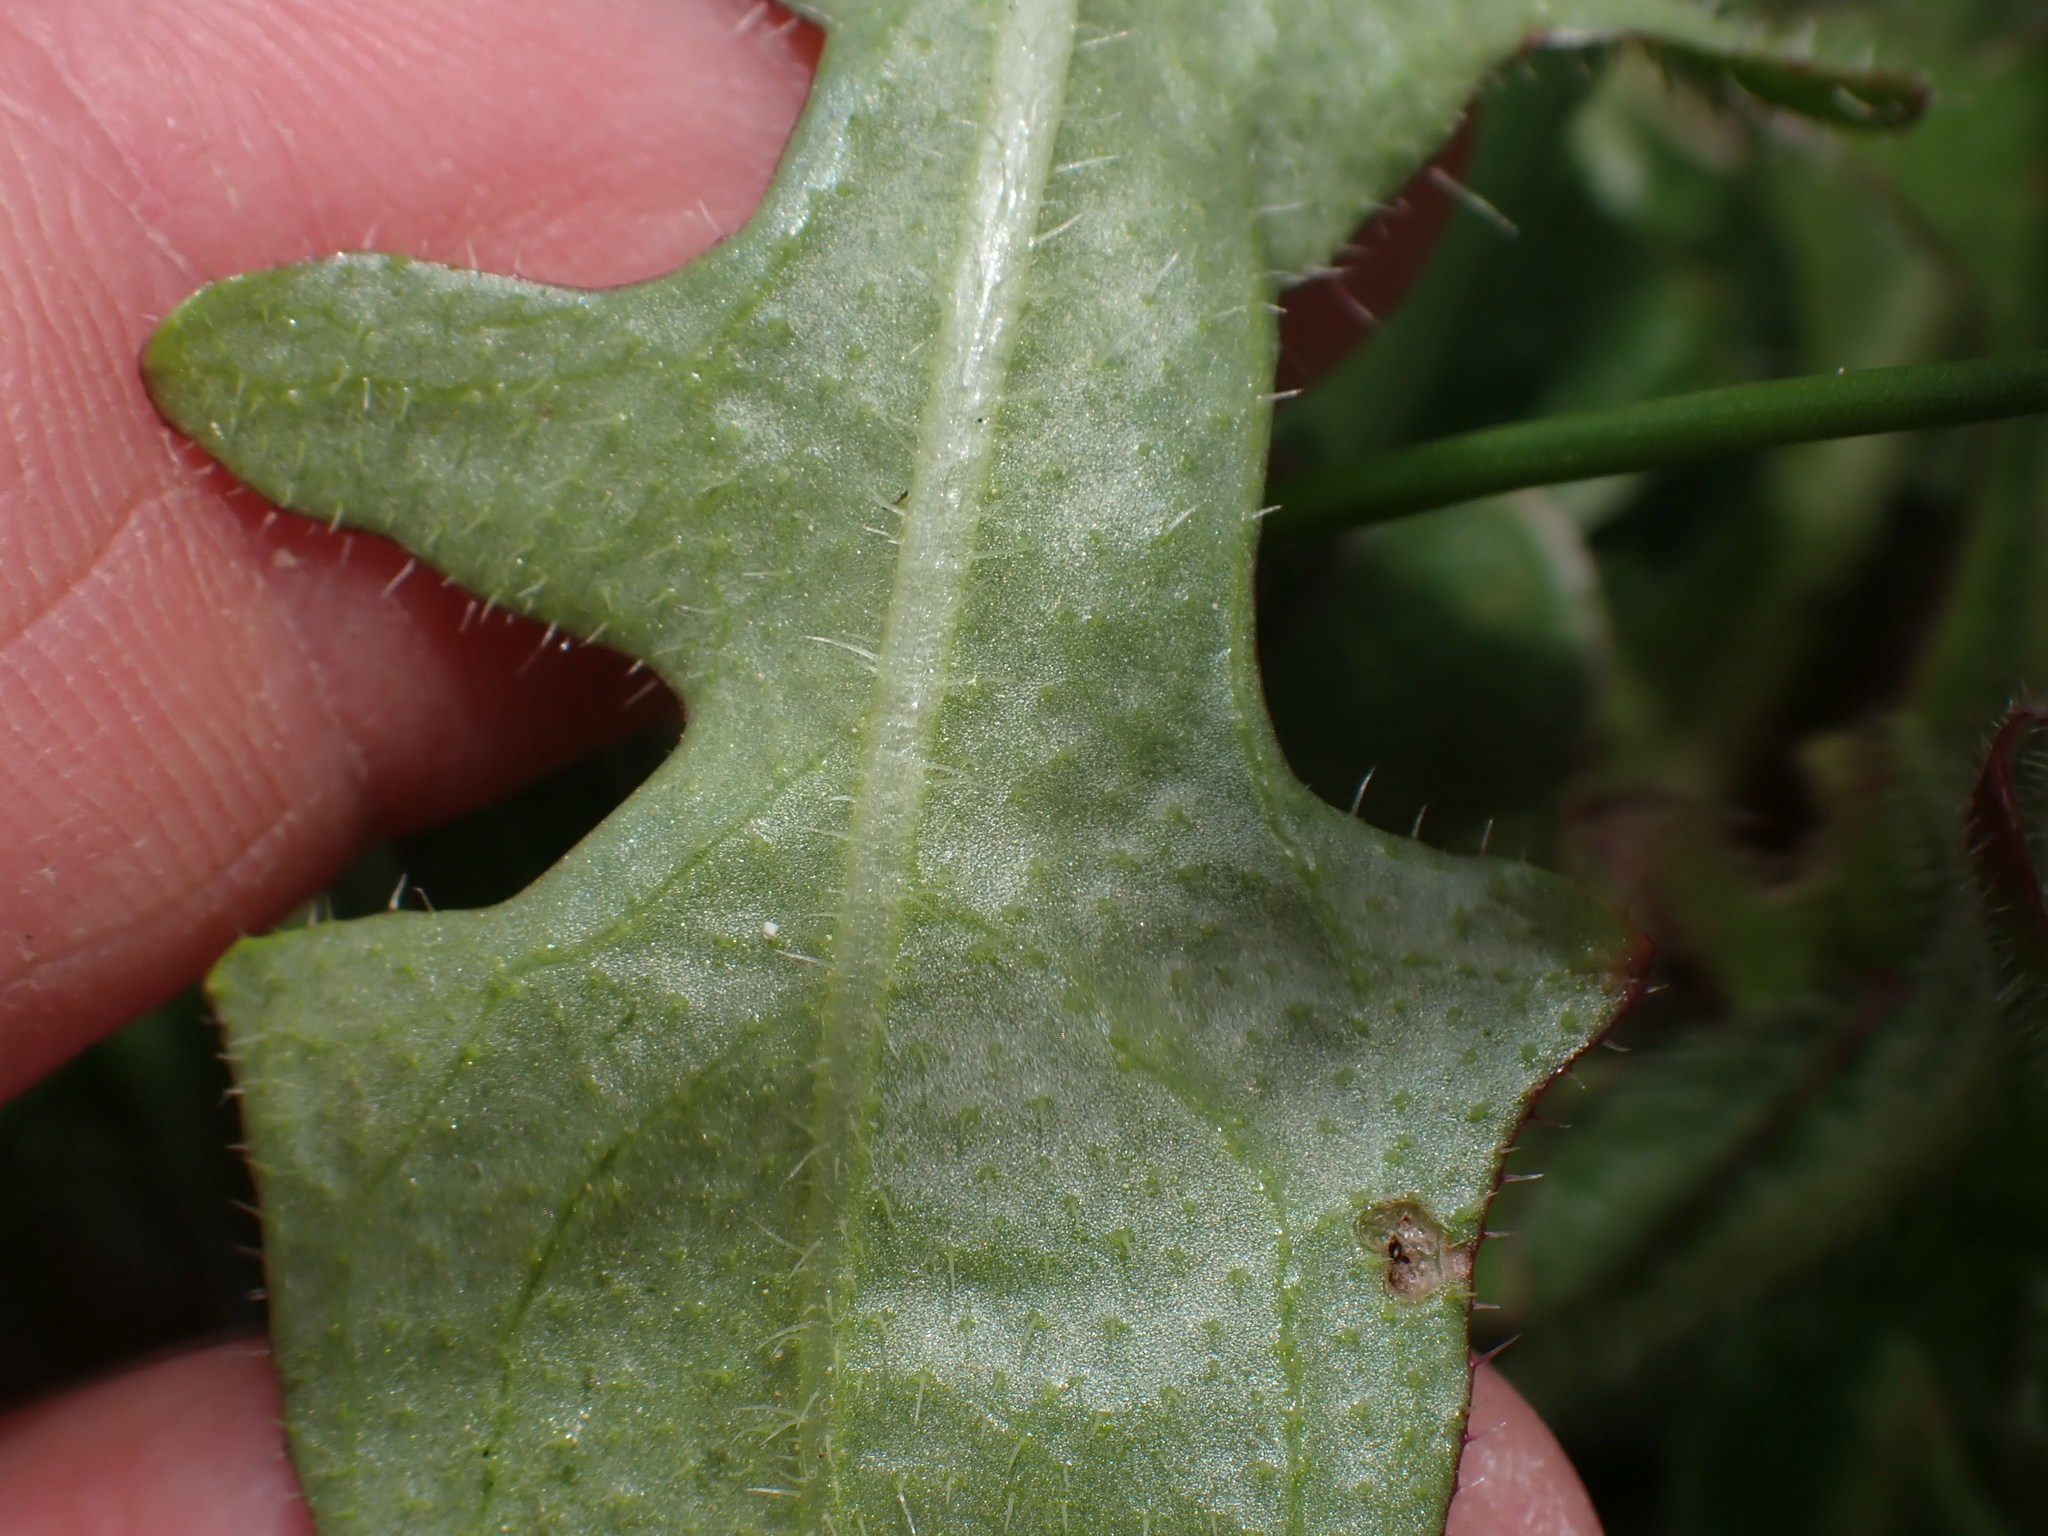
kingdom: Plantae
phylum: Tracheophyta
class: Magnoliopsida
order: Asterales
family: Asteraceae
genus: Hypochaeris
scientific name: Hypochaeris radicata
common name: Flatweed
